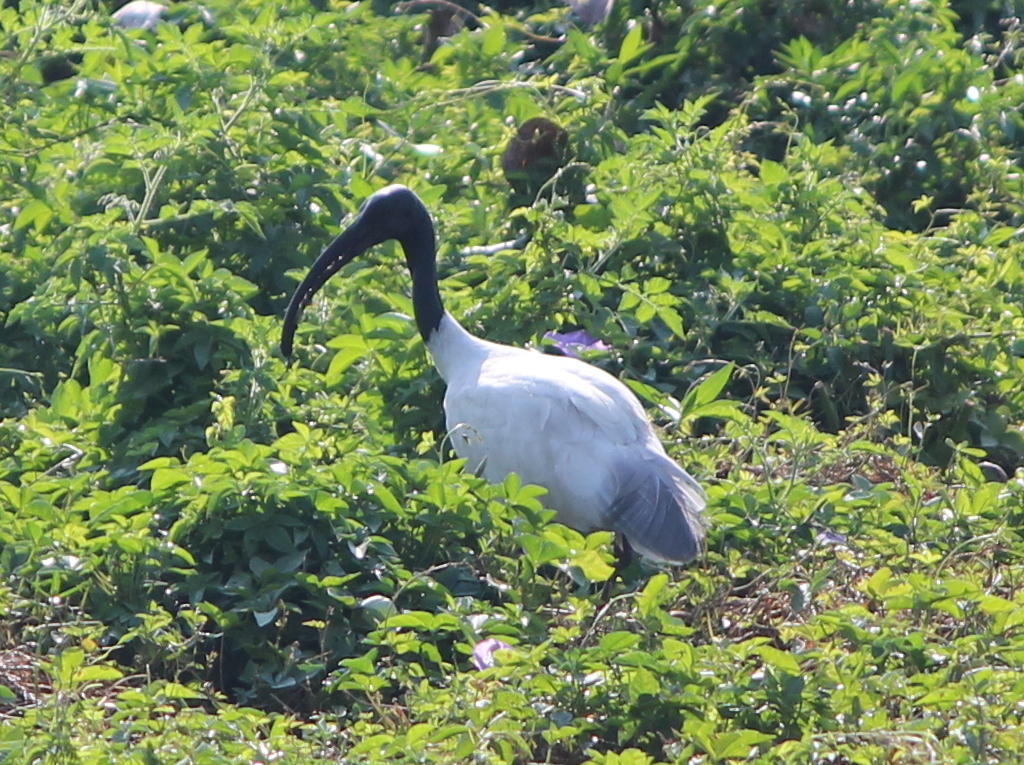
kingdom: Animalia
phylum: Chordata
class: Aves
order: Pelecaniformes
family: Threskiornithidae
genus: Threskiornis
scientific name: Threskiornis melanocephalus
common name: Black-headed ibis
